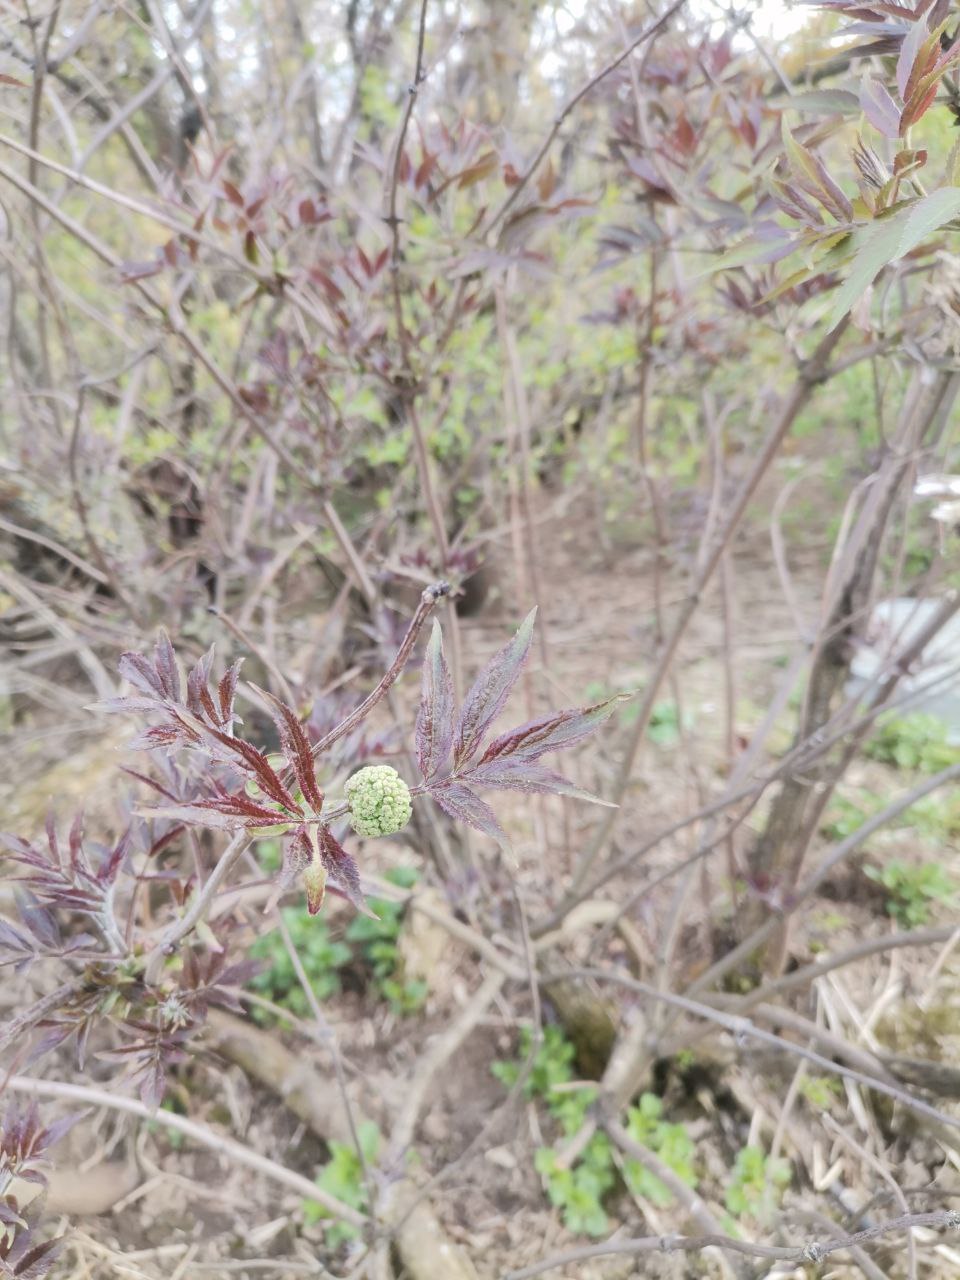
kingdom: Plantae
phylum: Tracheophyta
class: Magnoliopsida
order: Dipsacales
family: Viburnaceae
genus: Sambucus
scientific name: Sambucus racemosa
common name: Red-berried elder
